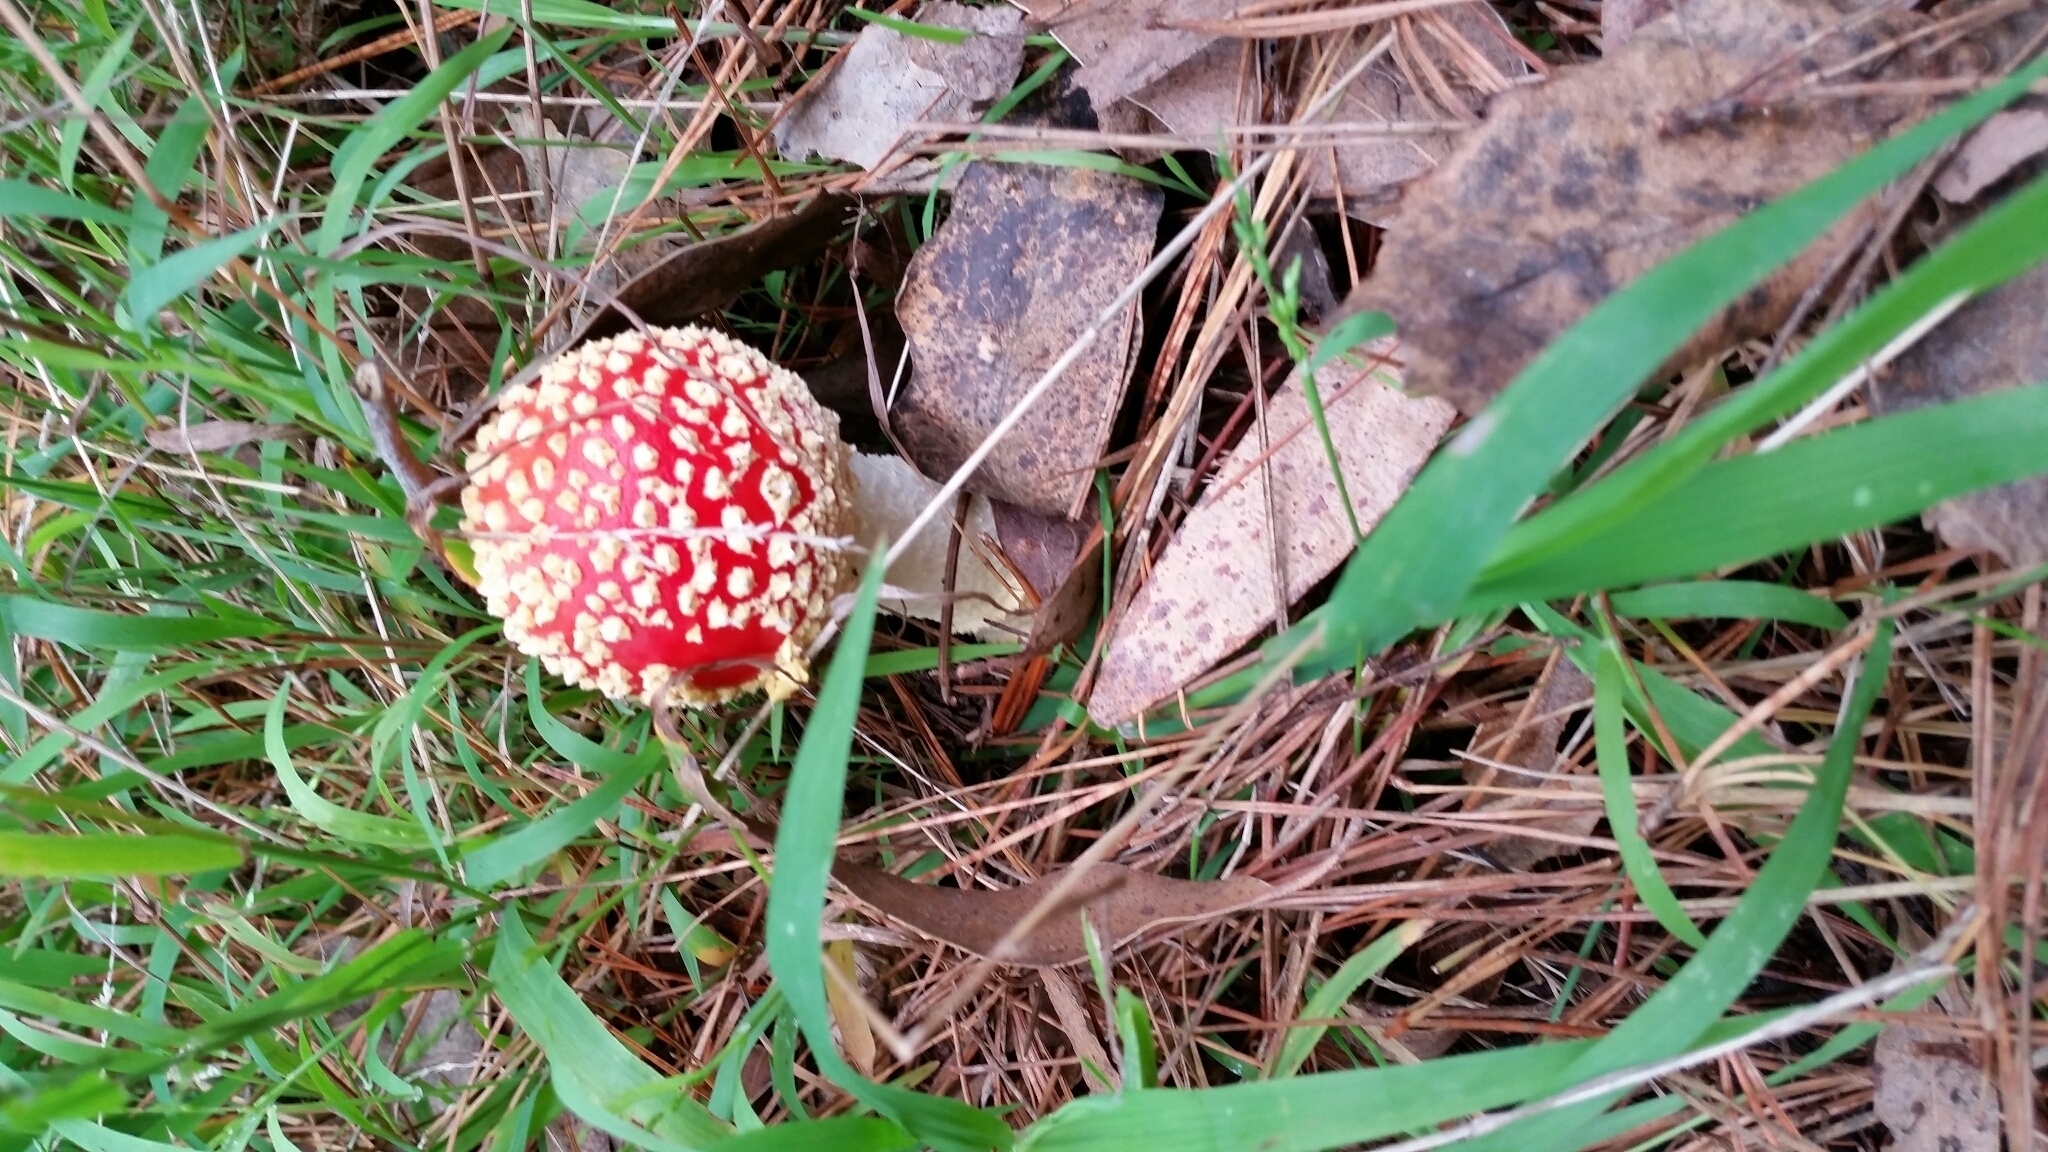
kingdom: Fungi
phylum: Basidiomycota
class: Agaricomycetes
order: Agaricales
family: Amanitaceae
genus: Amanita
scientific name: Amanita muscaria
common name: Fly agaric
